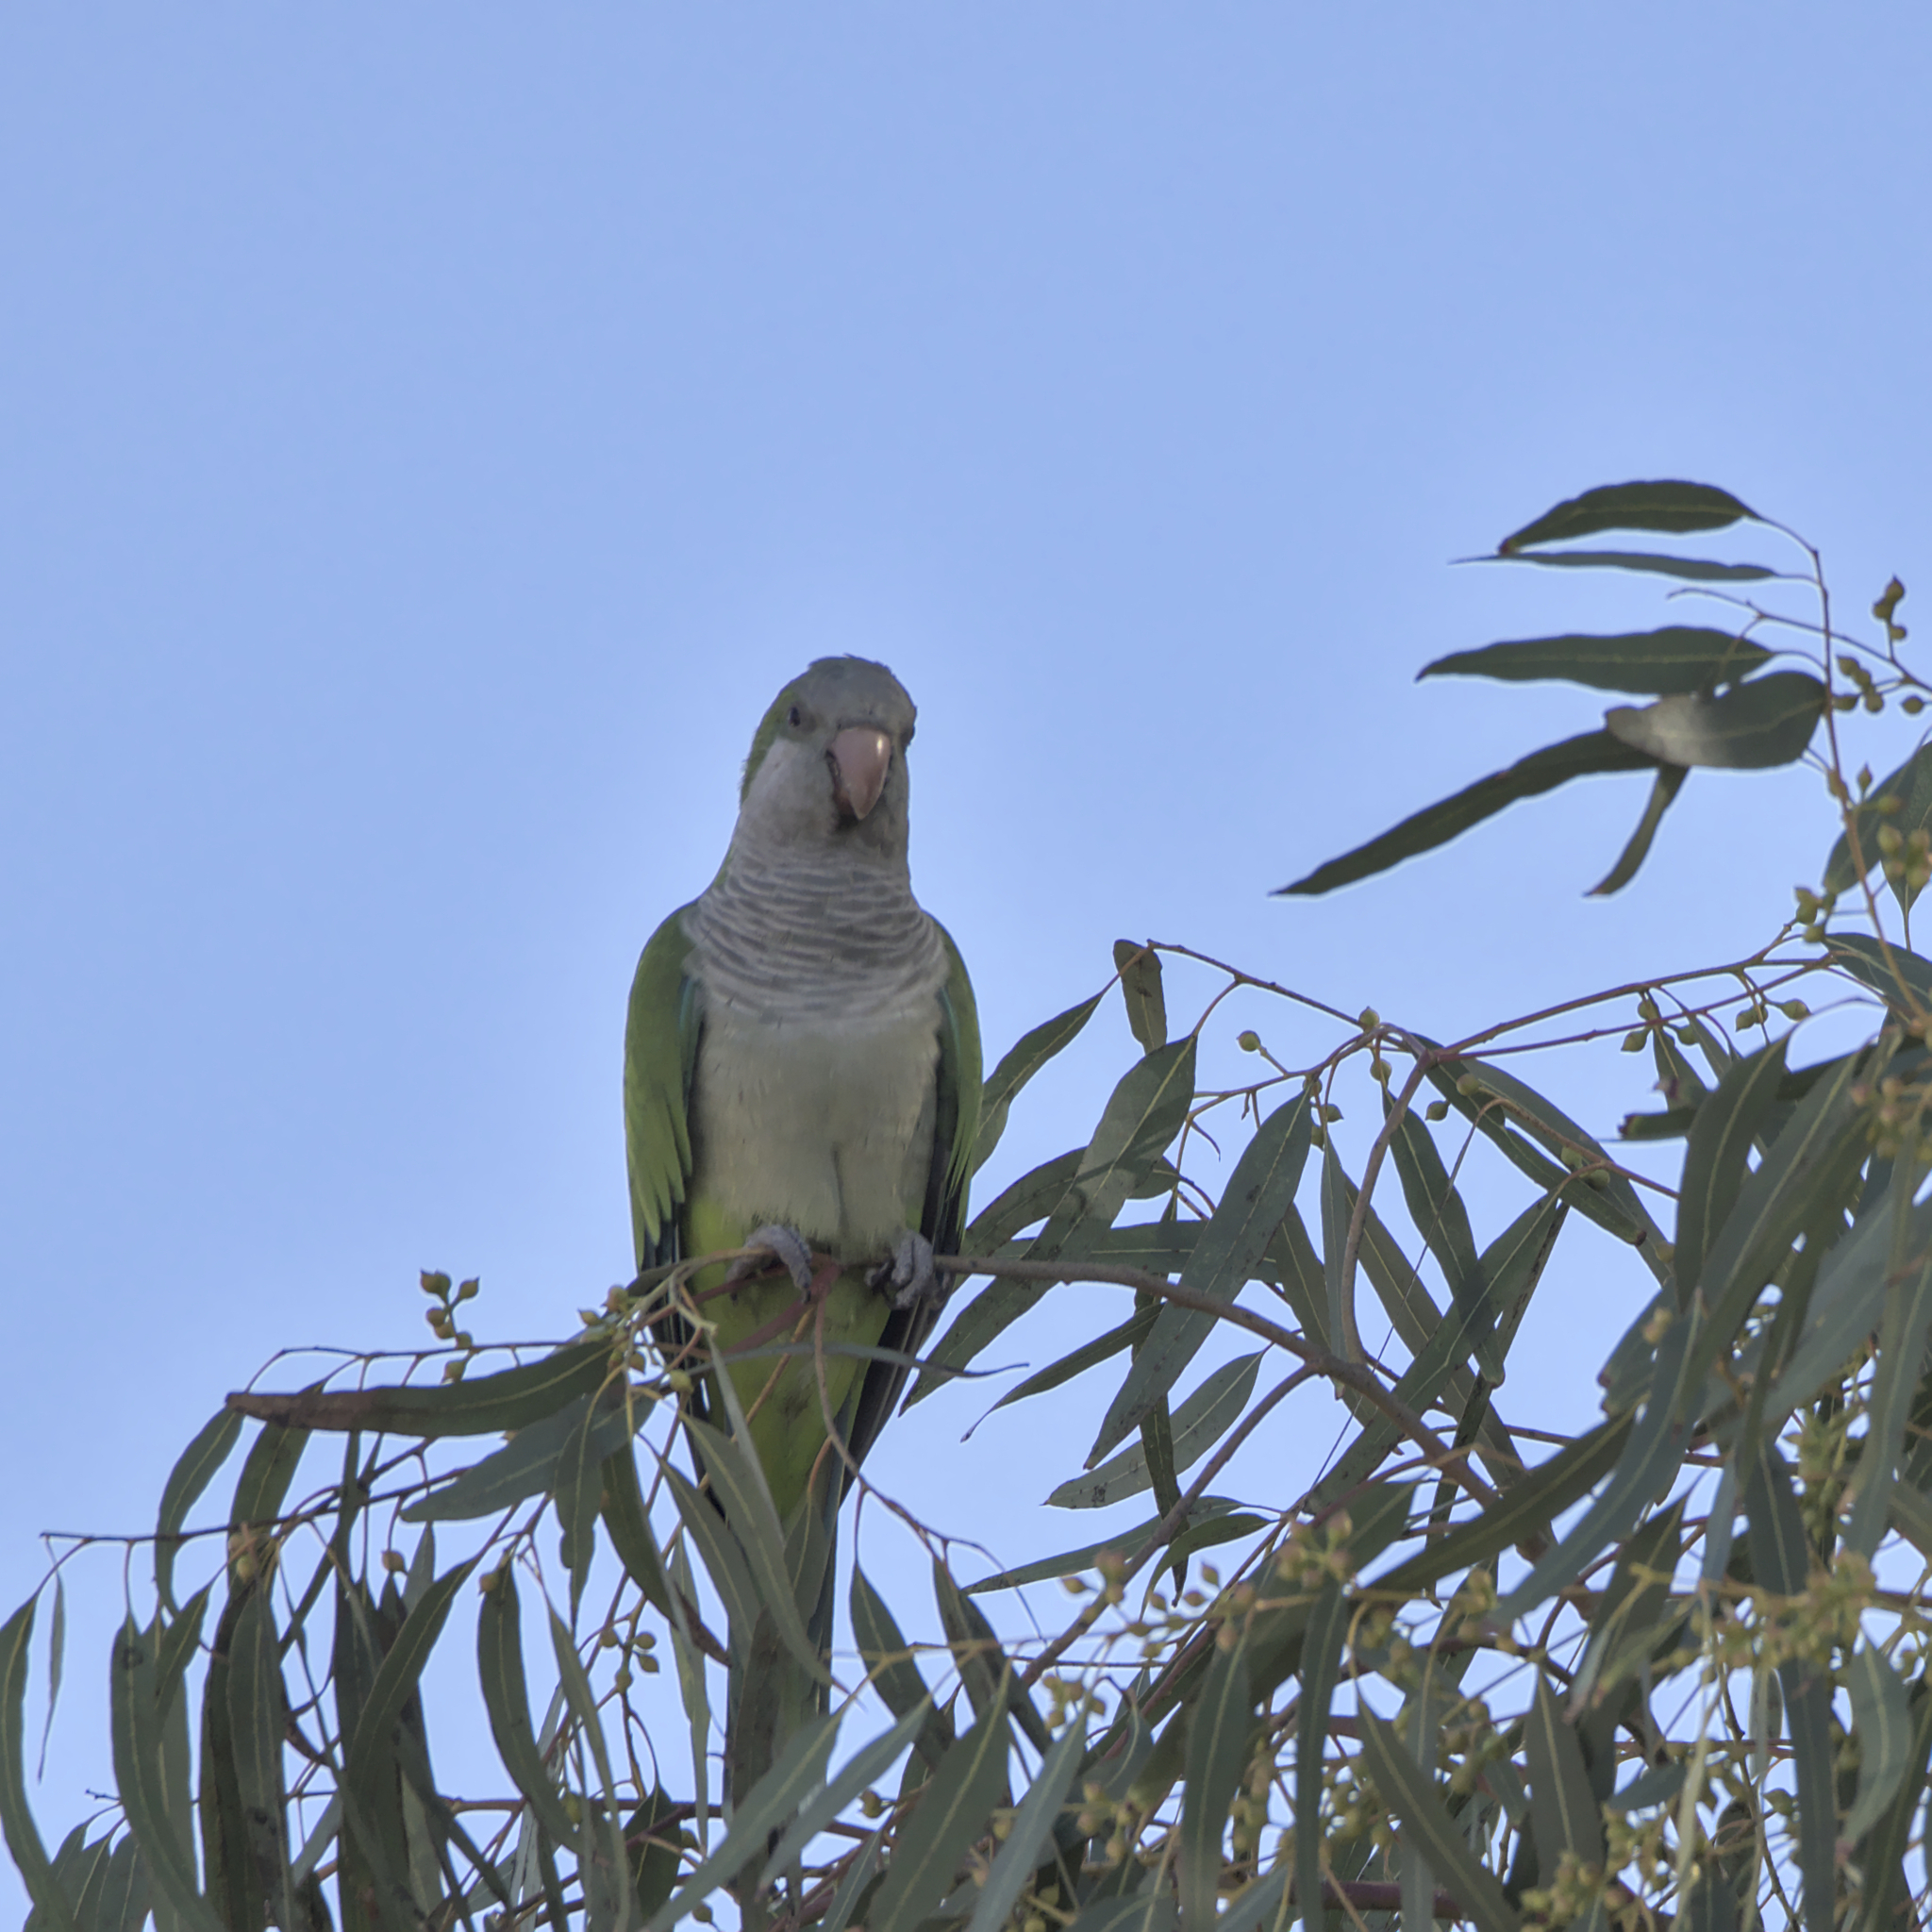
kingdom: Animalia
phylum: Chordata
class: Aves
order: Psittaciformes
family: Psittacidae
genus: Myiopsitta
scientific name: Myiopsitta monachus
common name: Monk parakeet
